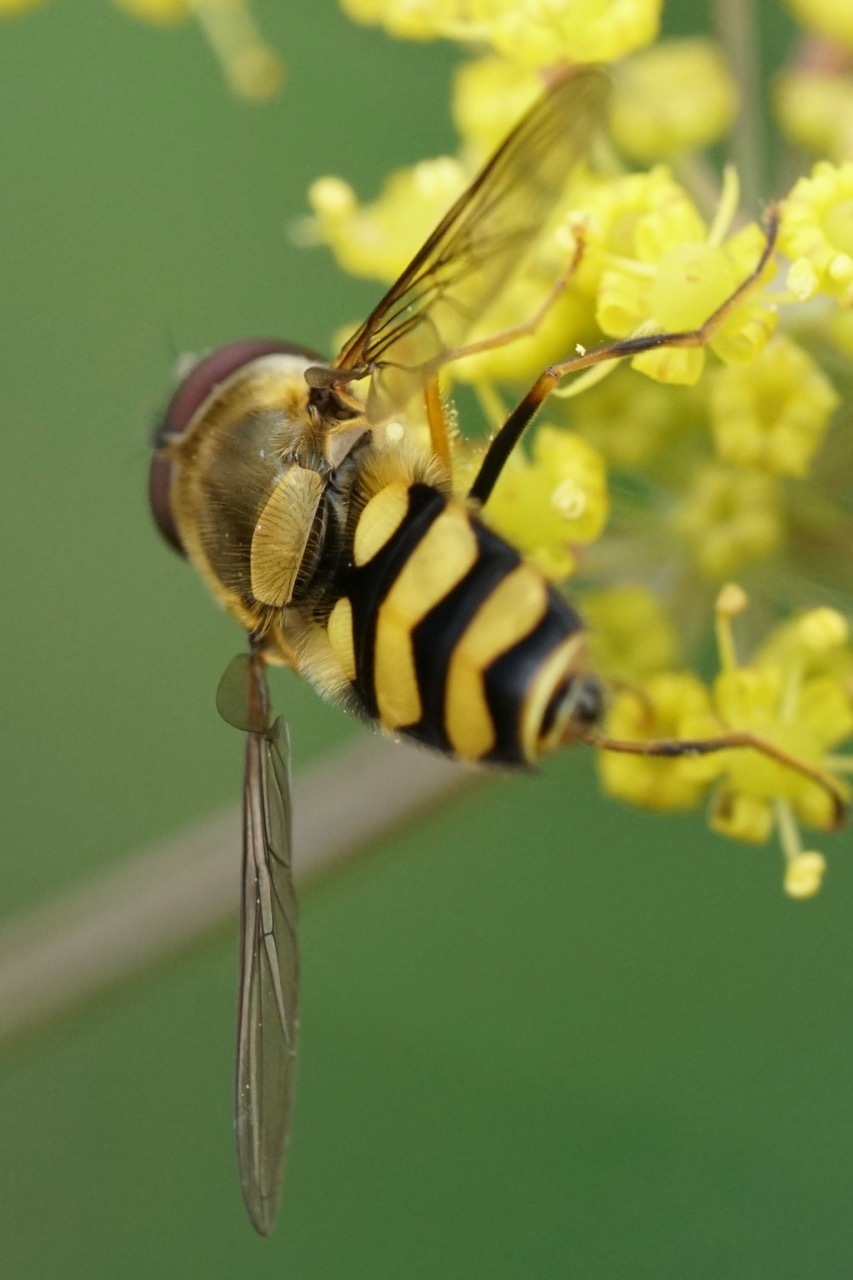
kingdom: Animalia
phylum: Arthropoda
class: Insecta
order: Diptera
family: Syrphidae
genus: Syrphus
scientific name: Syrphus
